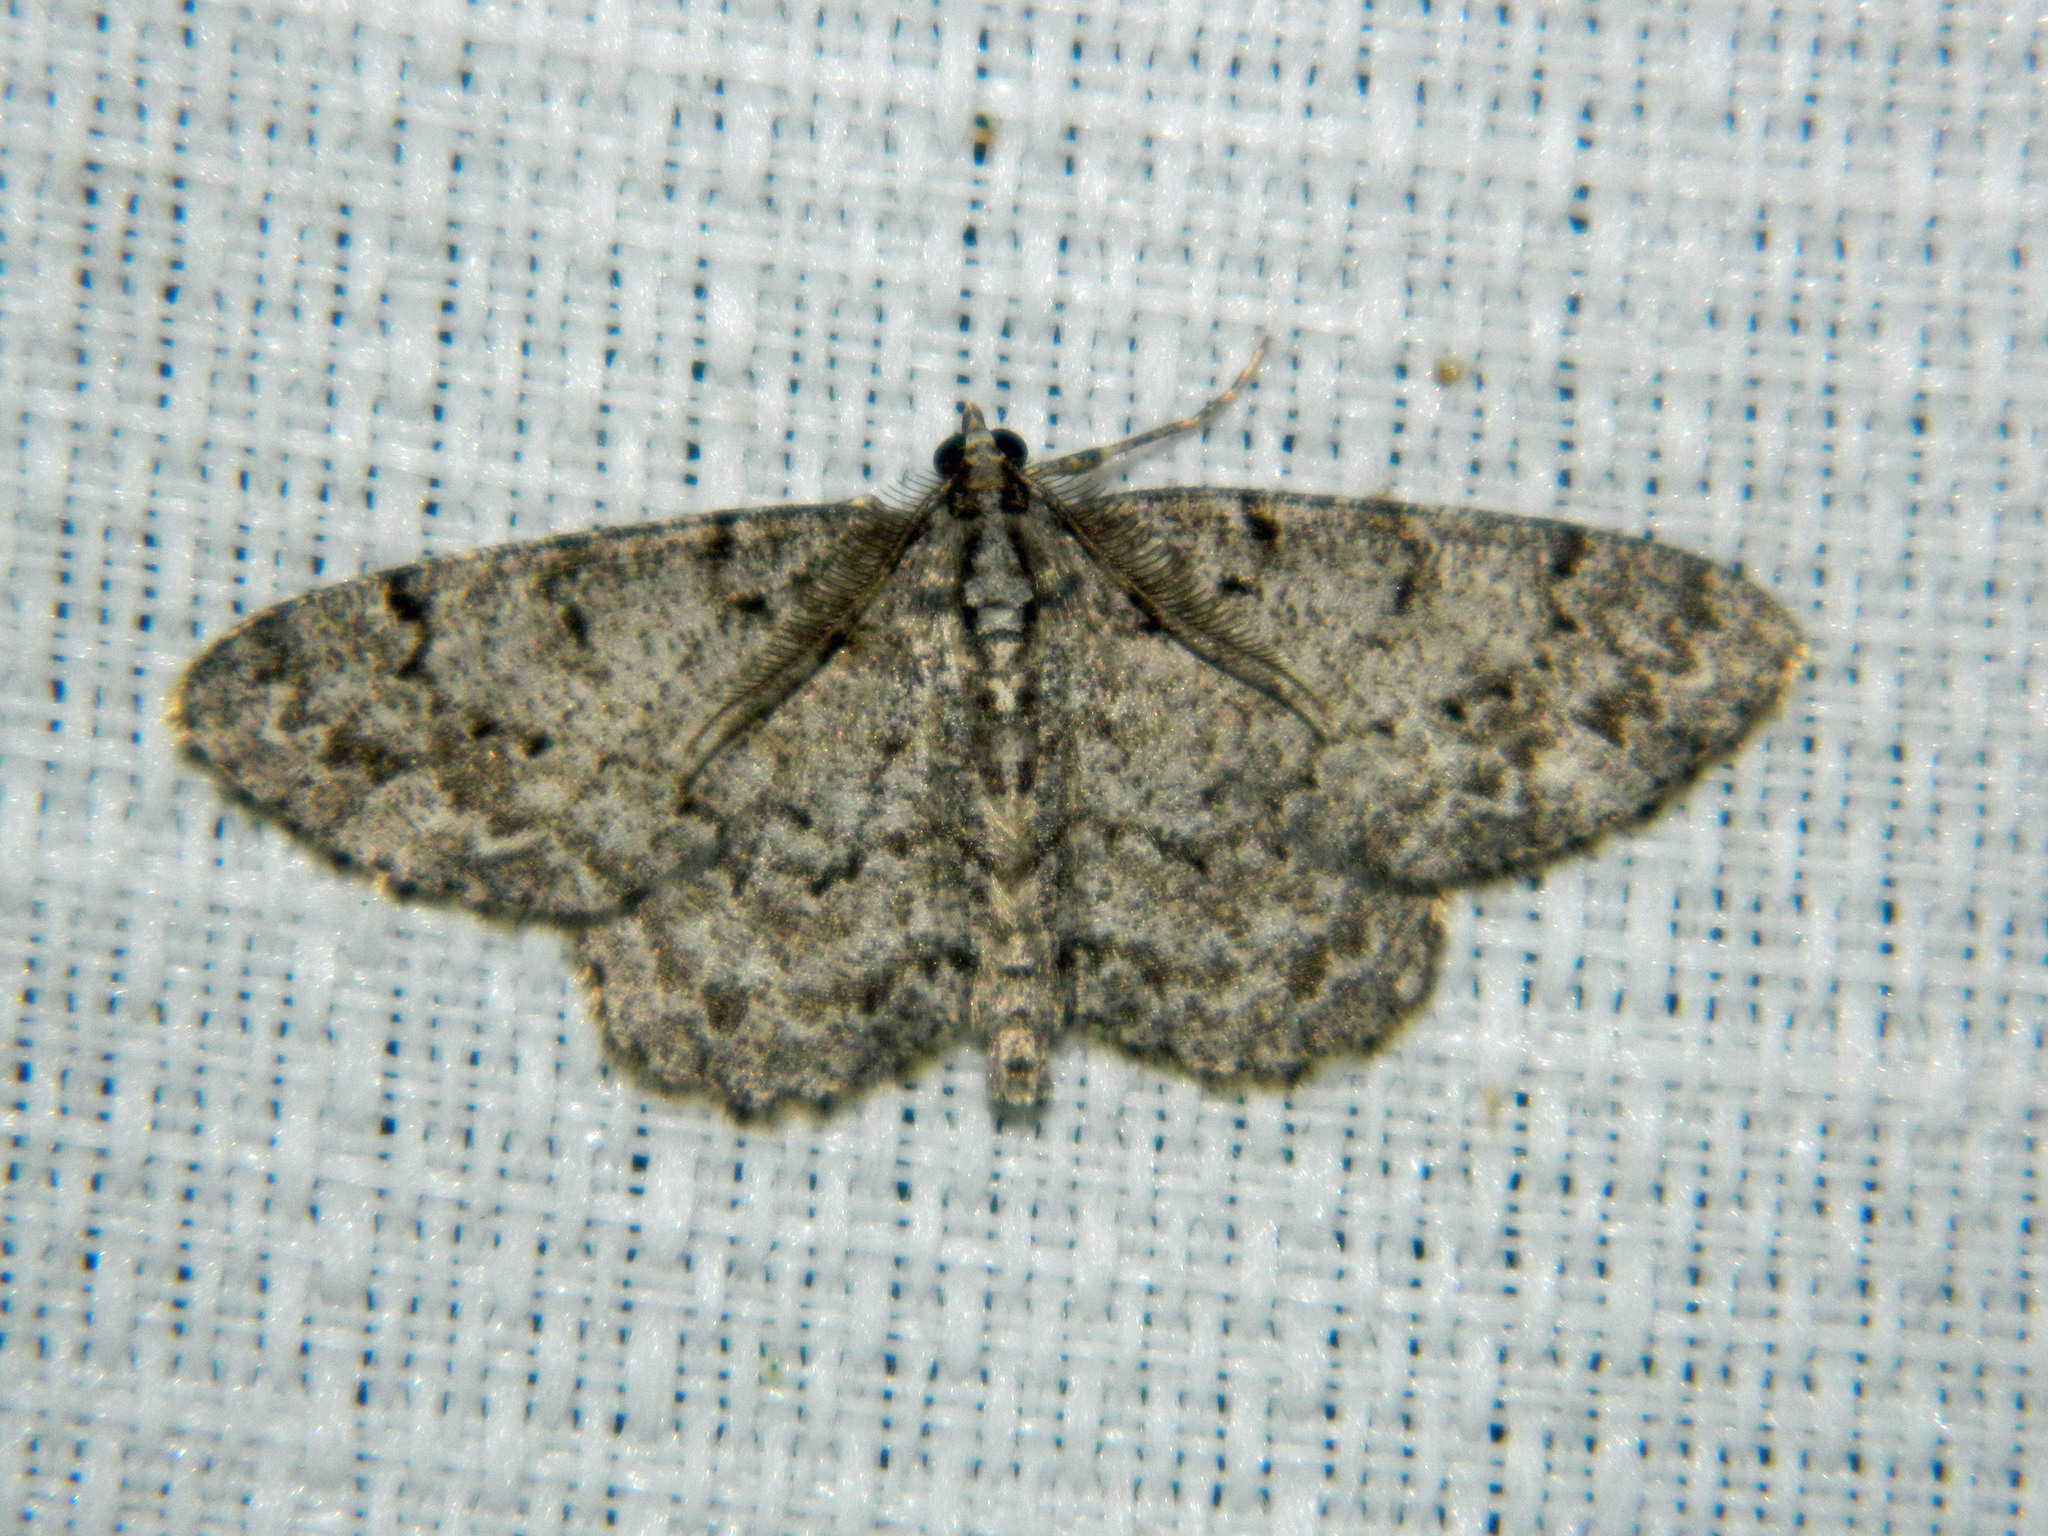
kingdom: Animalia
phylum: Arthropoda
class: Insecta
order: Lepidoptera
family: Geometridae
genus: Protoboarmia
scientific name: Protoboarmia porcelaria
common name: Porcelain gray
